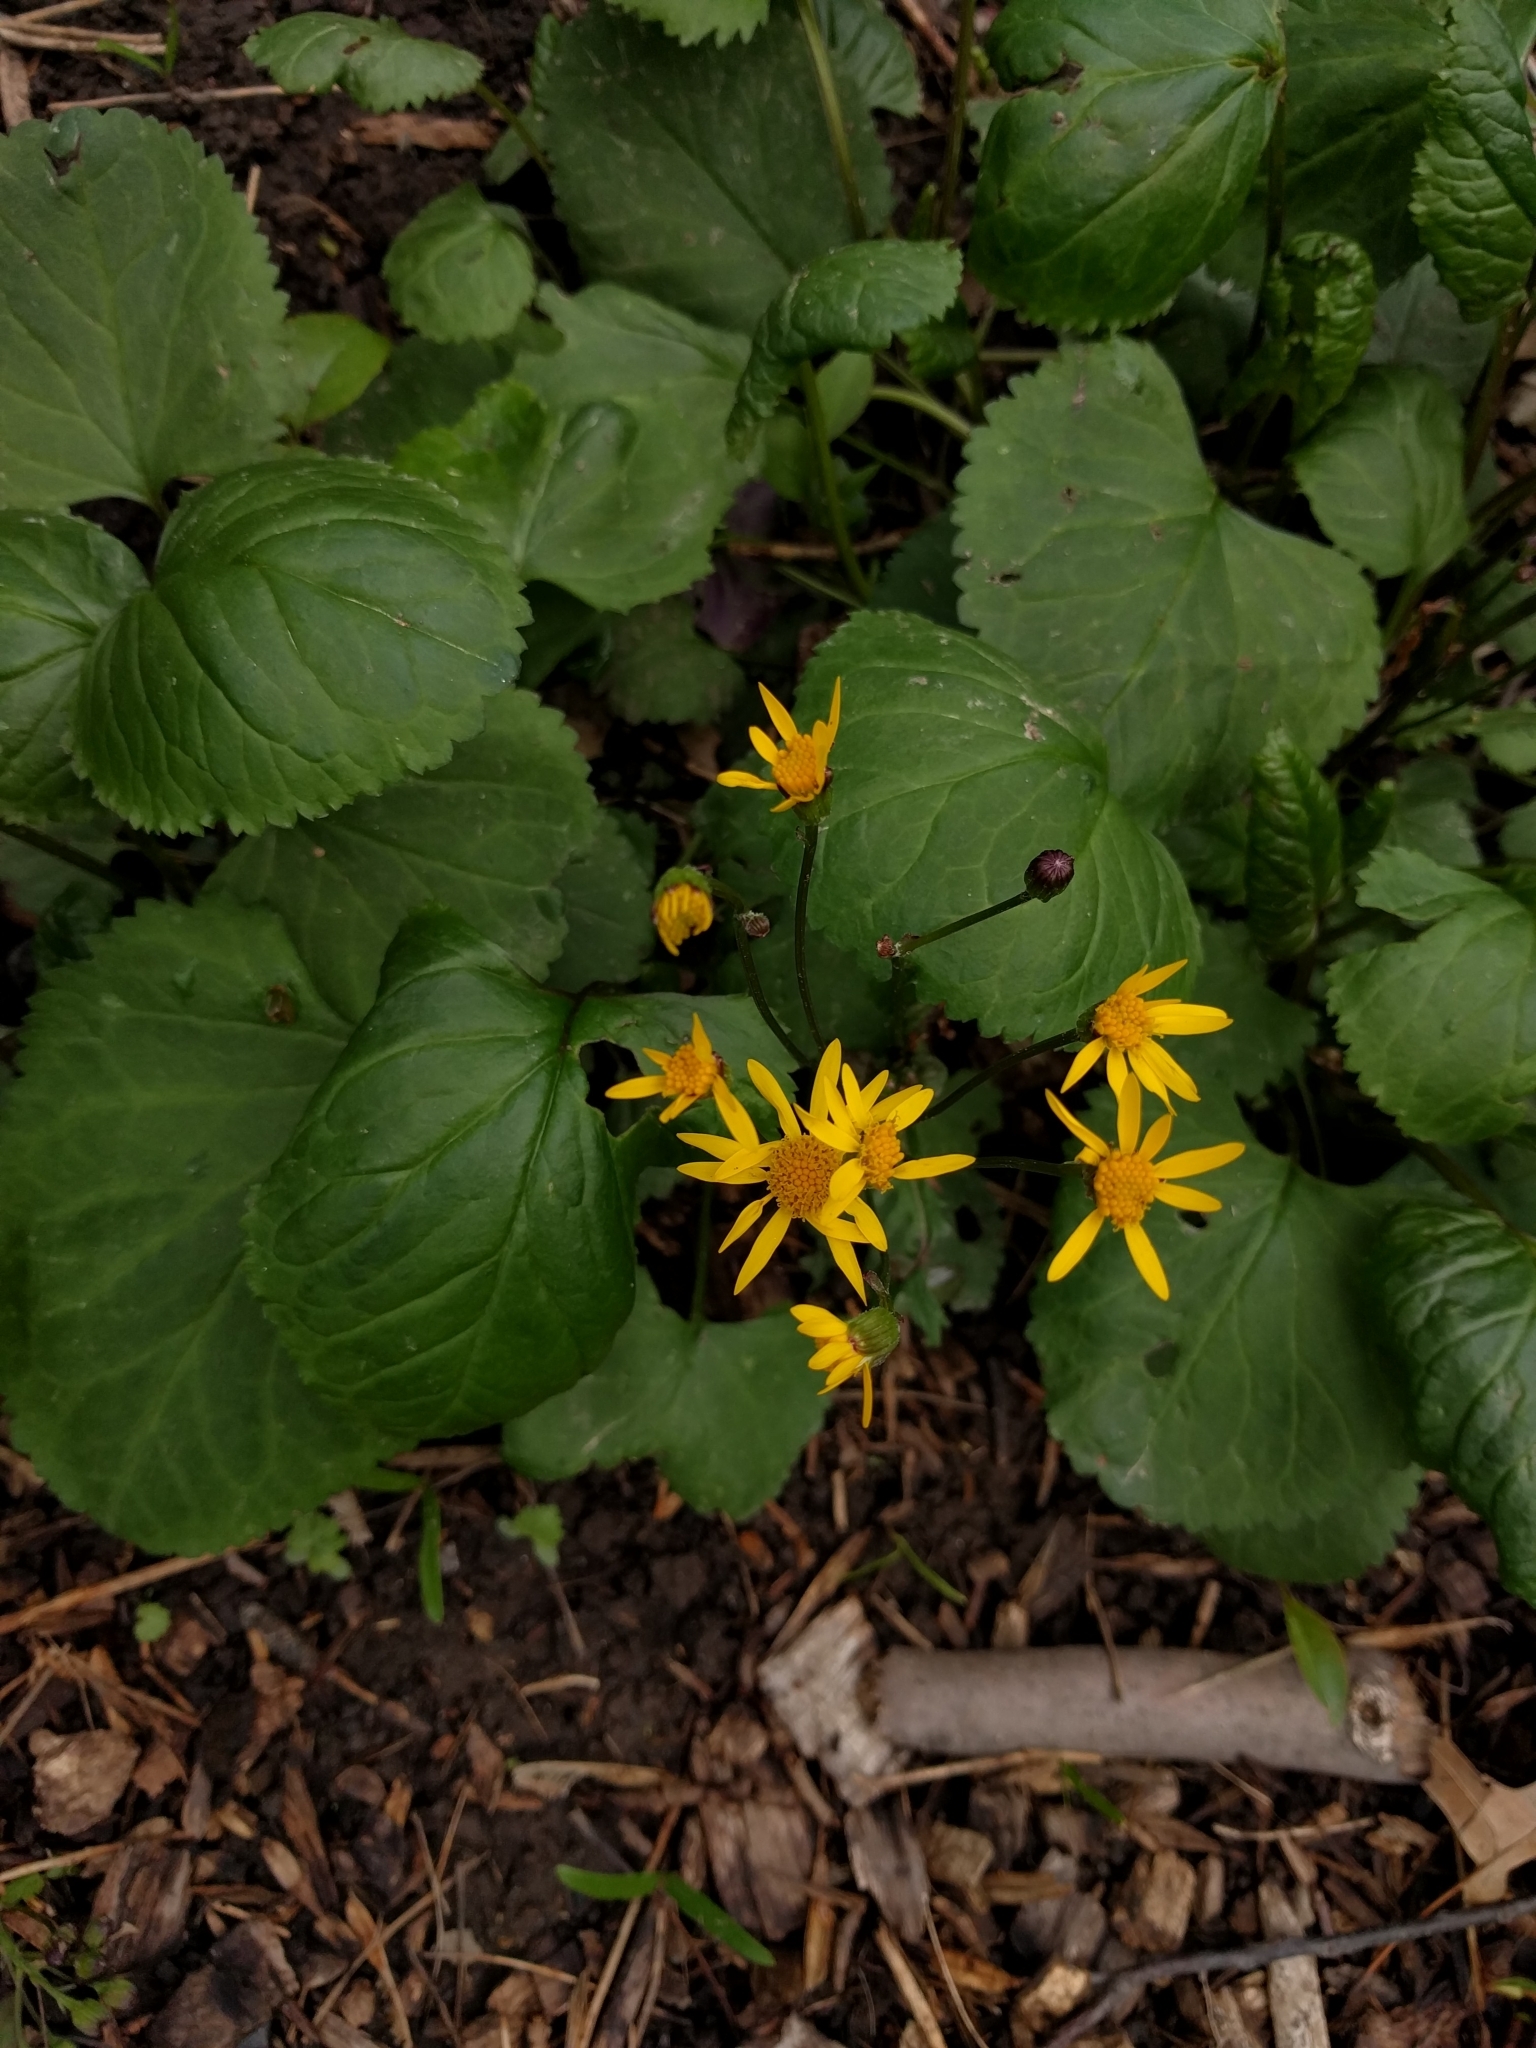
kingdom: Plantae
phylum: Tracheophyta
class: Magnoliopsida
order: Asterales
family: Asteraceae
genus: Packera
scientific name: Packera aurea
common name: Golden groundsel
